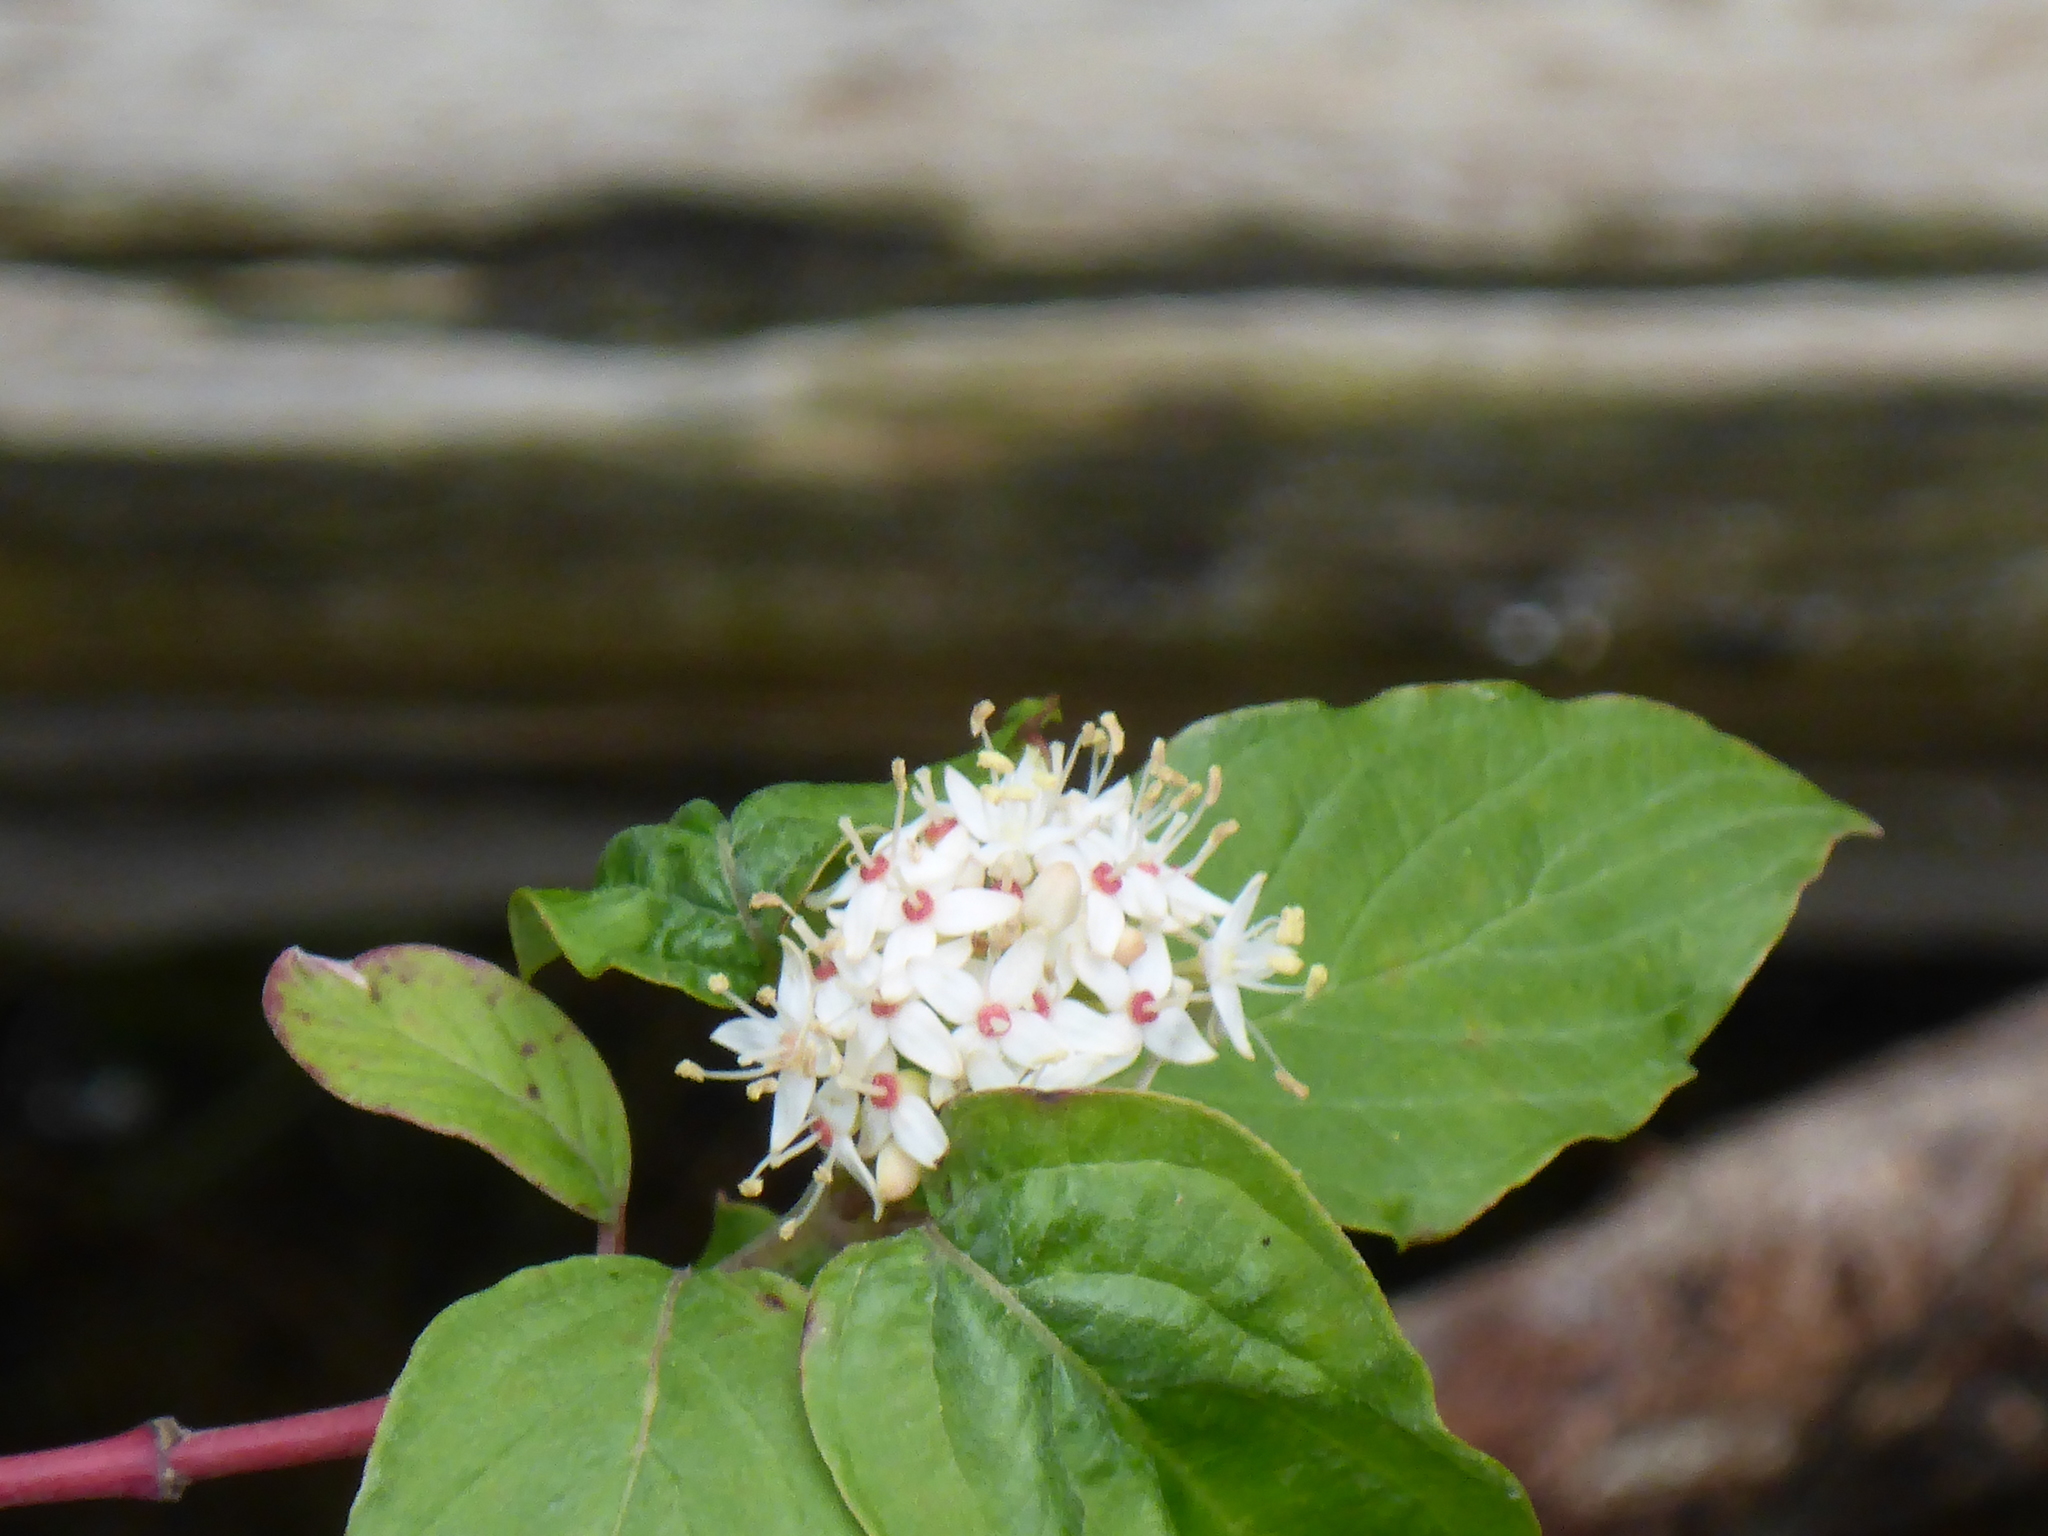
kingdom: Plantae
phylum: Tracheophyta
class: Magnoliopsida
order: Cornales
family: Cornaceae
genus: Cornus
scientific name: Cornus sericea
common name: Red-osier dogwood
